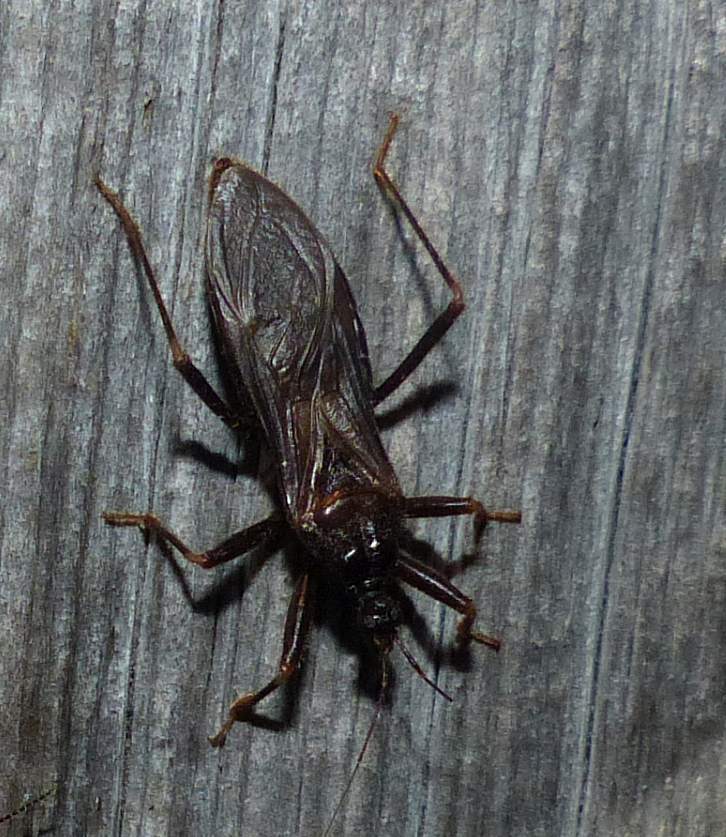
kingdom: Animalia
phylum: Arthropoda
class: Insecta
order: Hemiptera
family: Reduviidae
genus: Reduvius
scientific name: Reduvius personatus
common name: Masked hunter
